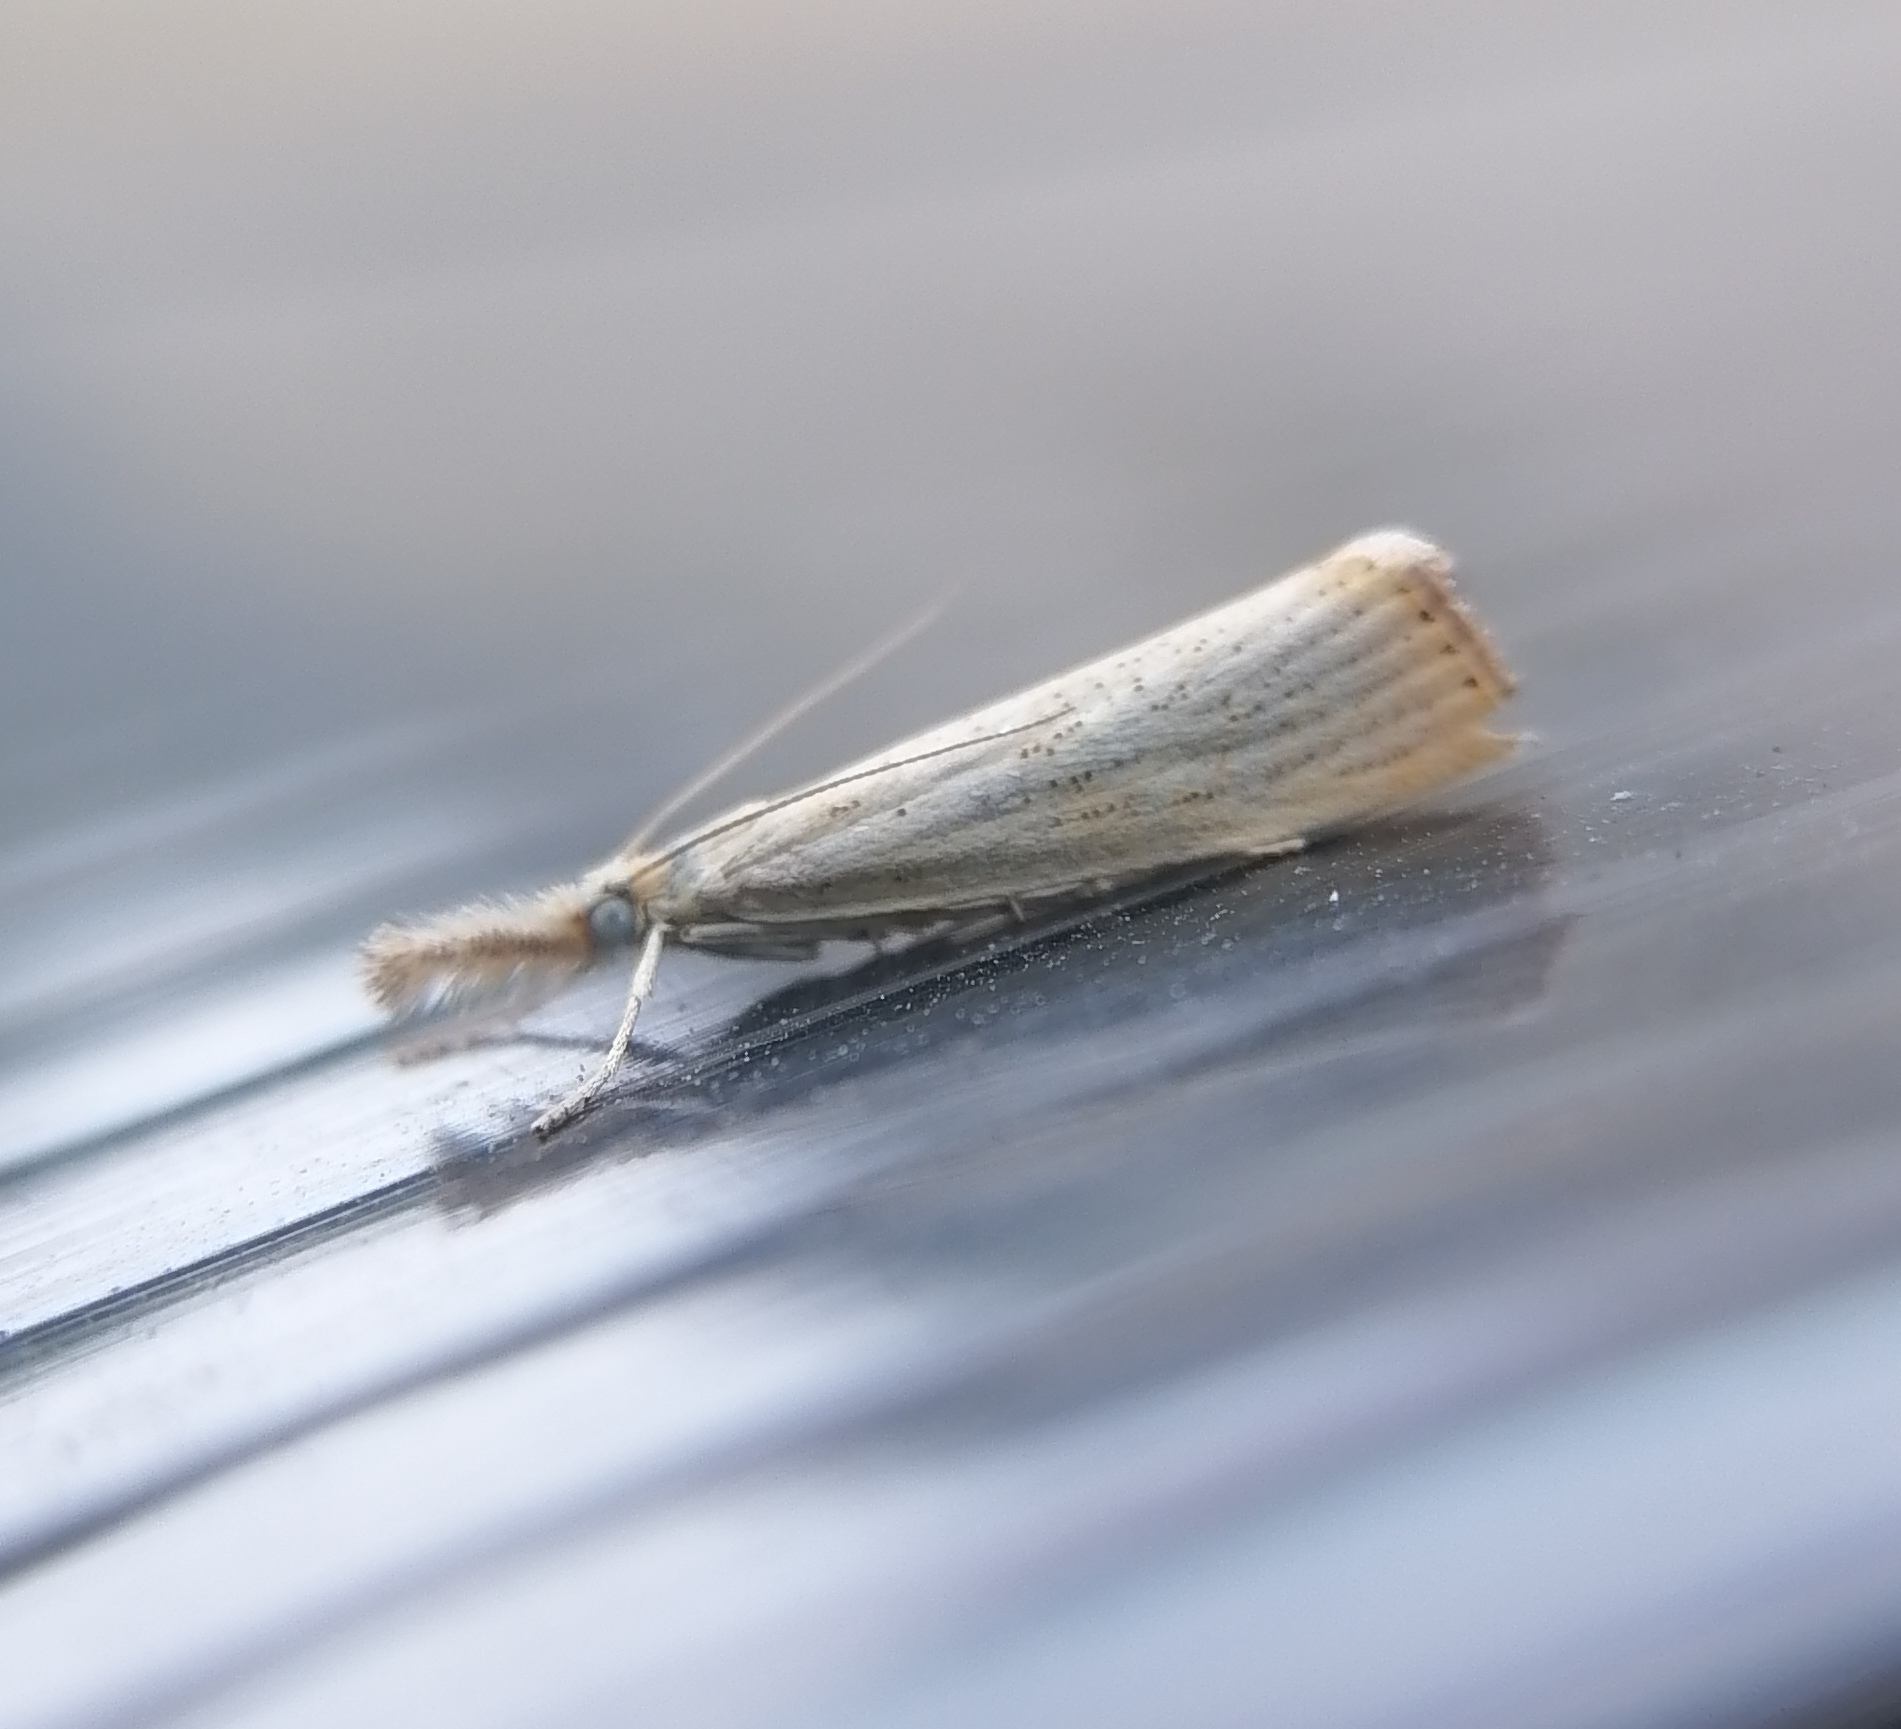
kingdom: Animalia
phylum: Arthropoda
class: Insecta
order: Lepidoptera
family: Crambidae
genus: Agriphila
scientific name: Agriphila straminella
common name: Straw grass-veneer
